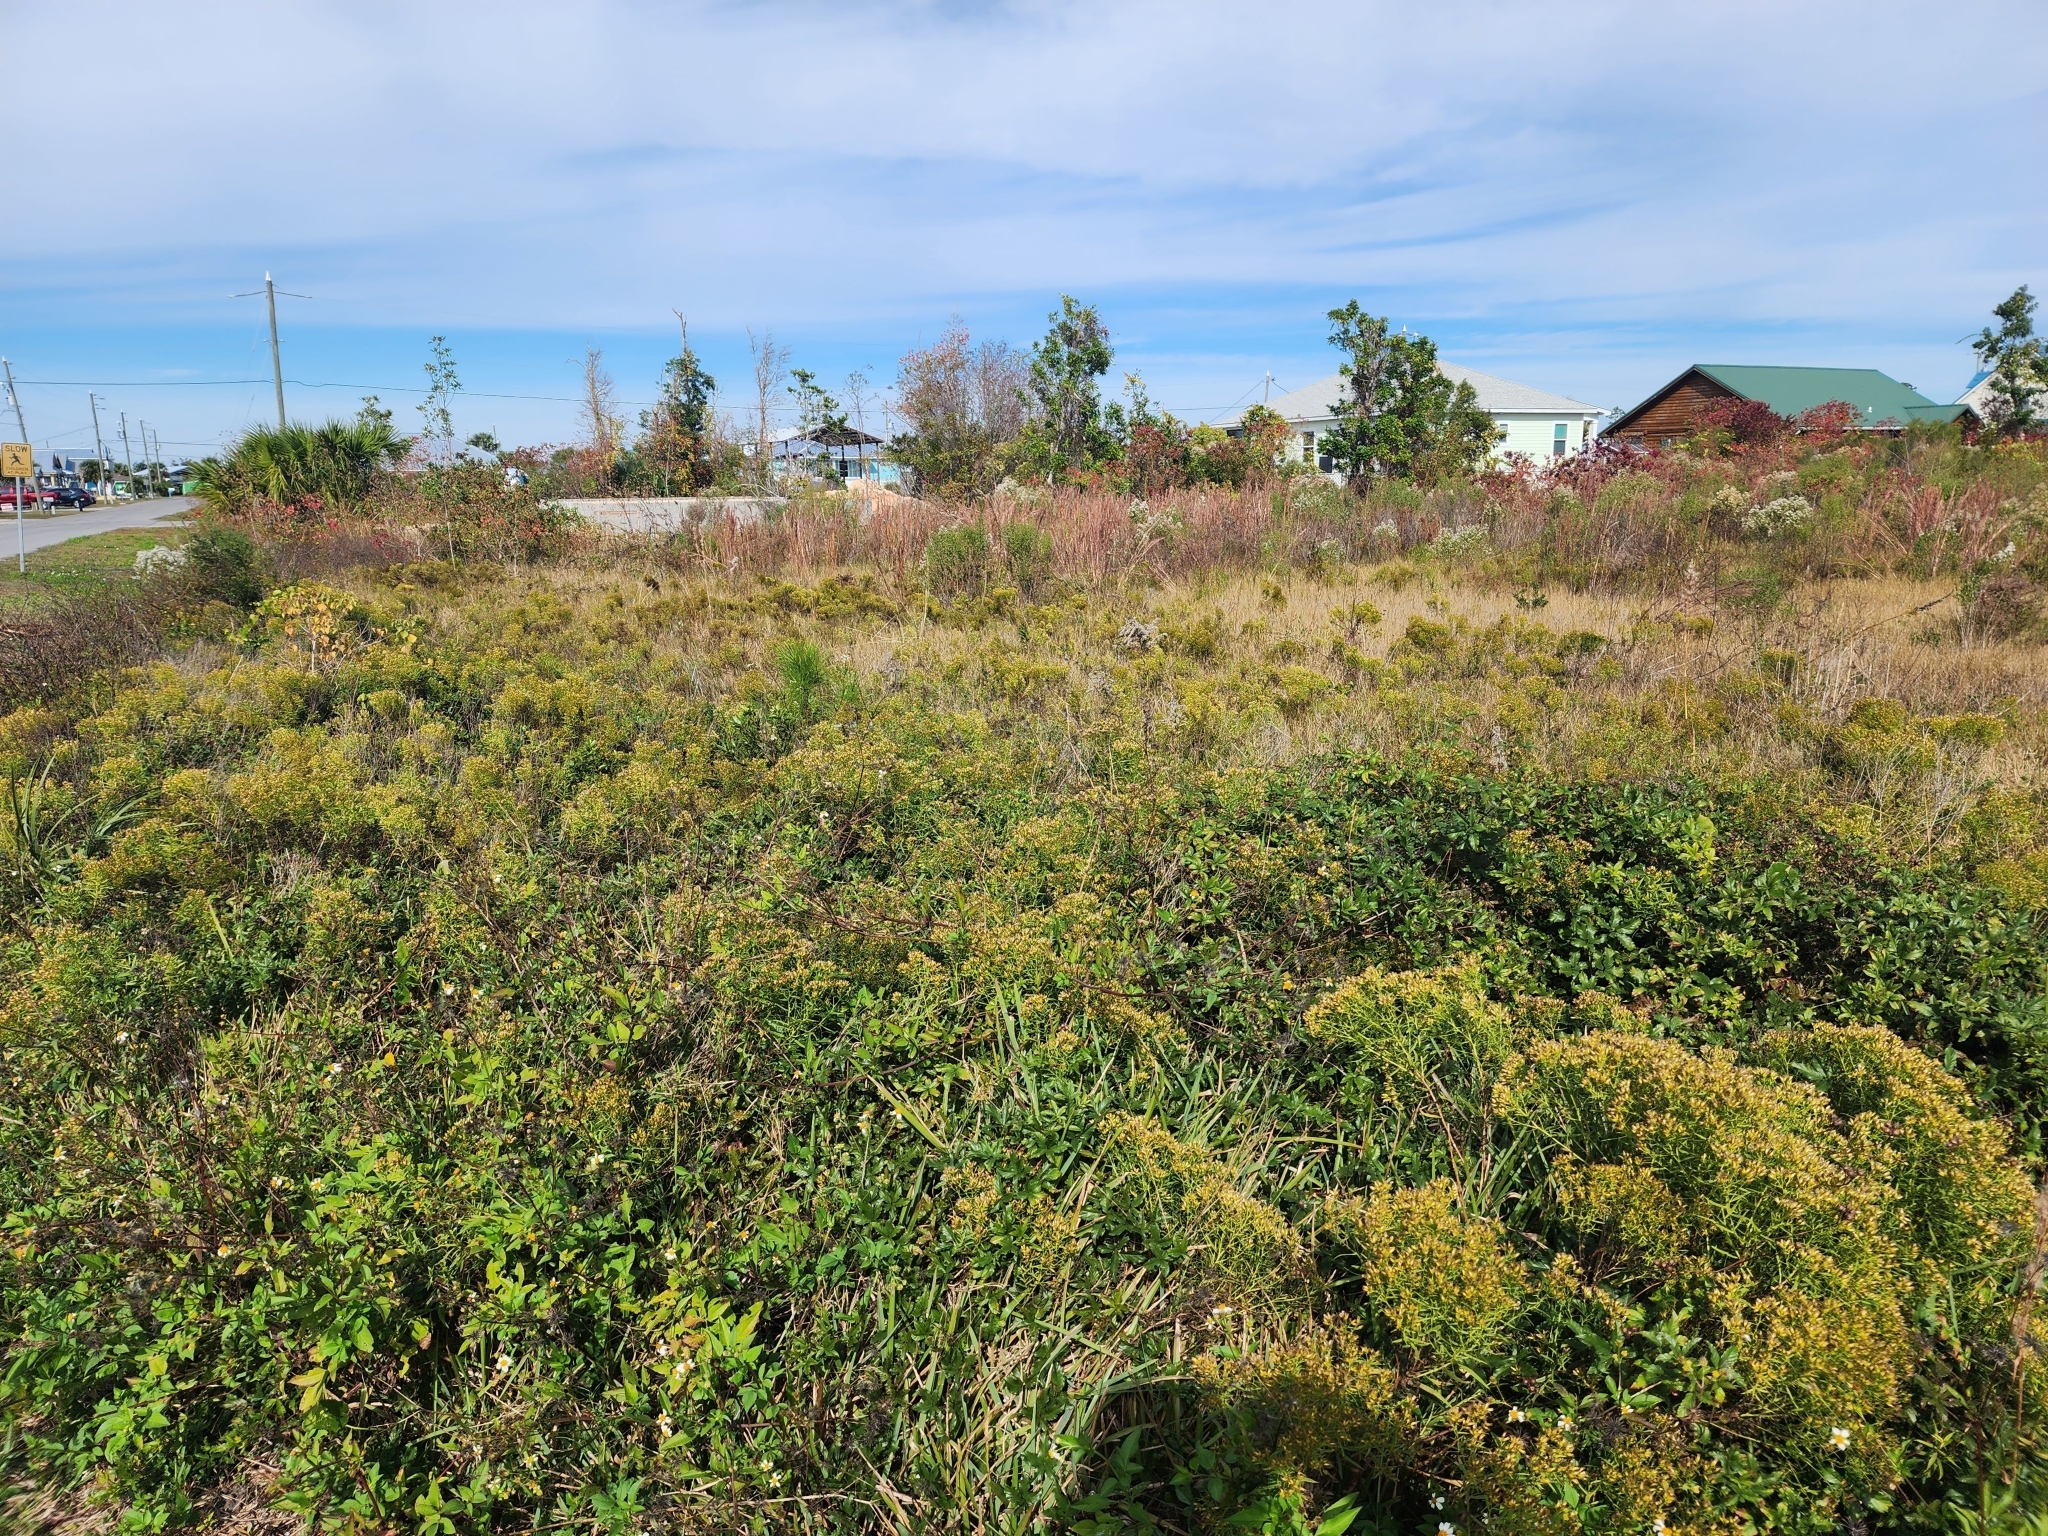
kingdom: Plantae
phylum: Tracheophyta
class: Magnoliopsida
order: Asterales
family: Asteraceae
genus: Euthamia
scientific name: Euthamia weakleyi
